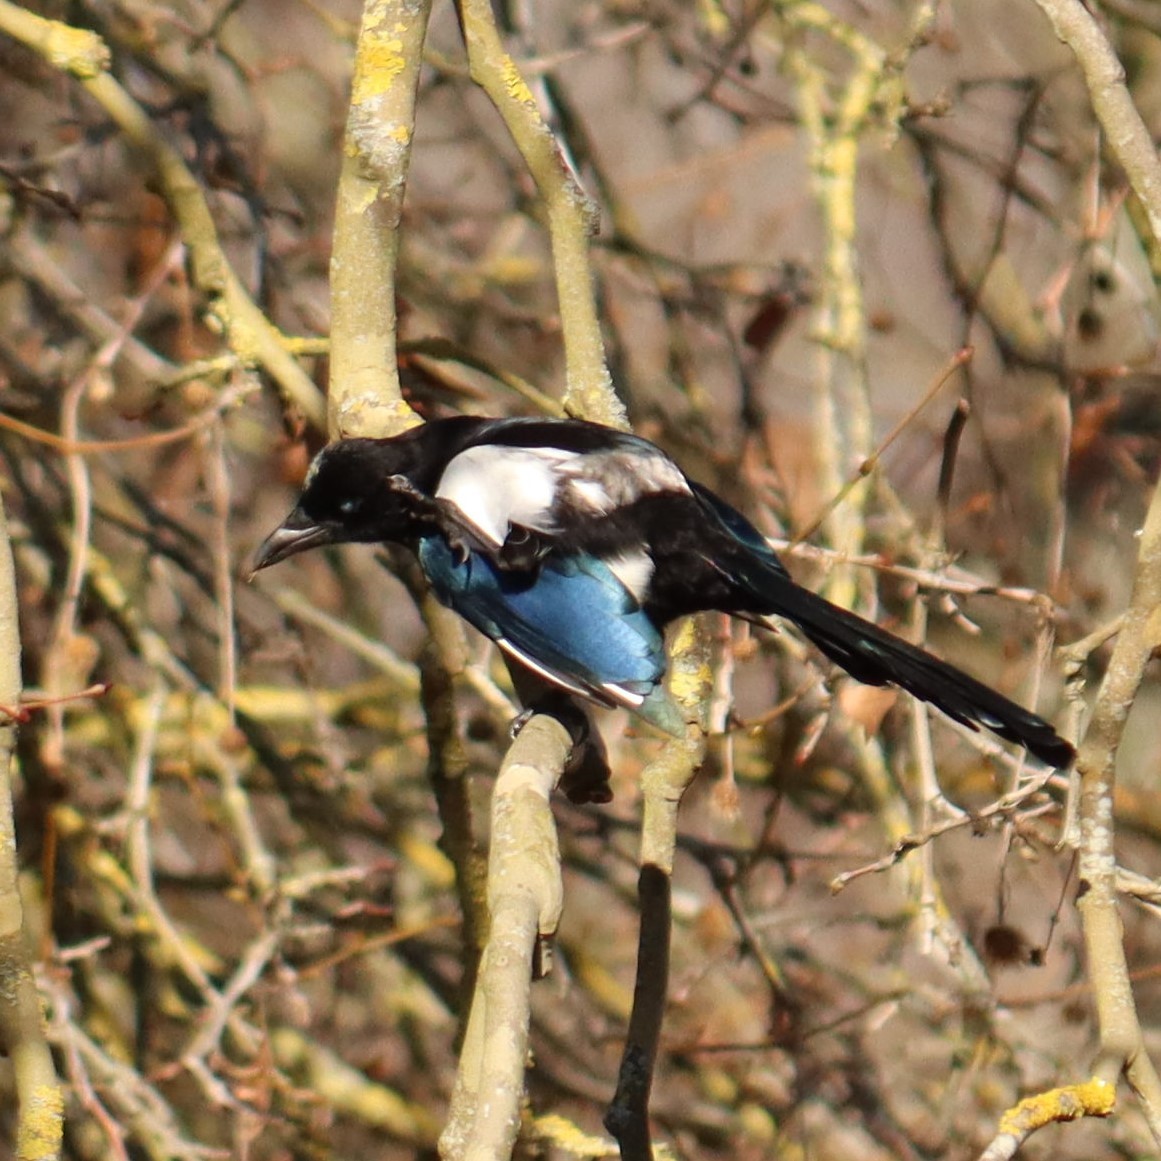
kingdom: Animalia
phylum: Chordata
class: Aves
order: Passeriformes
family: Corvidae
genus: Pica
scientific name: Pica pica
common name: Eurasian magpie
